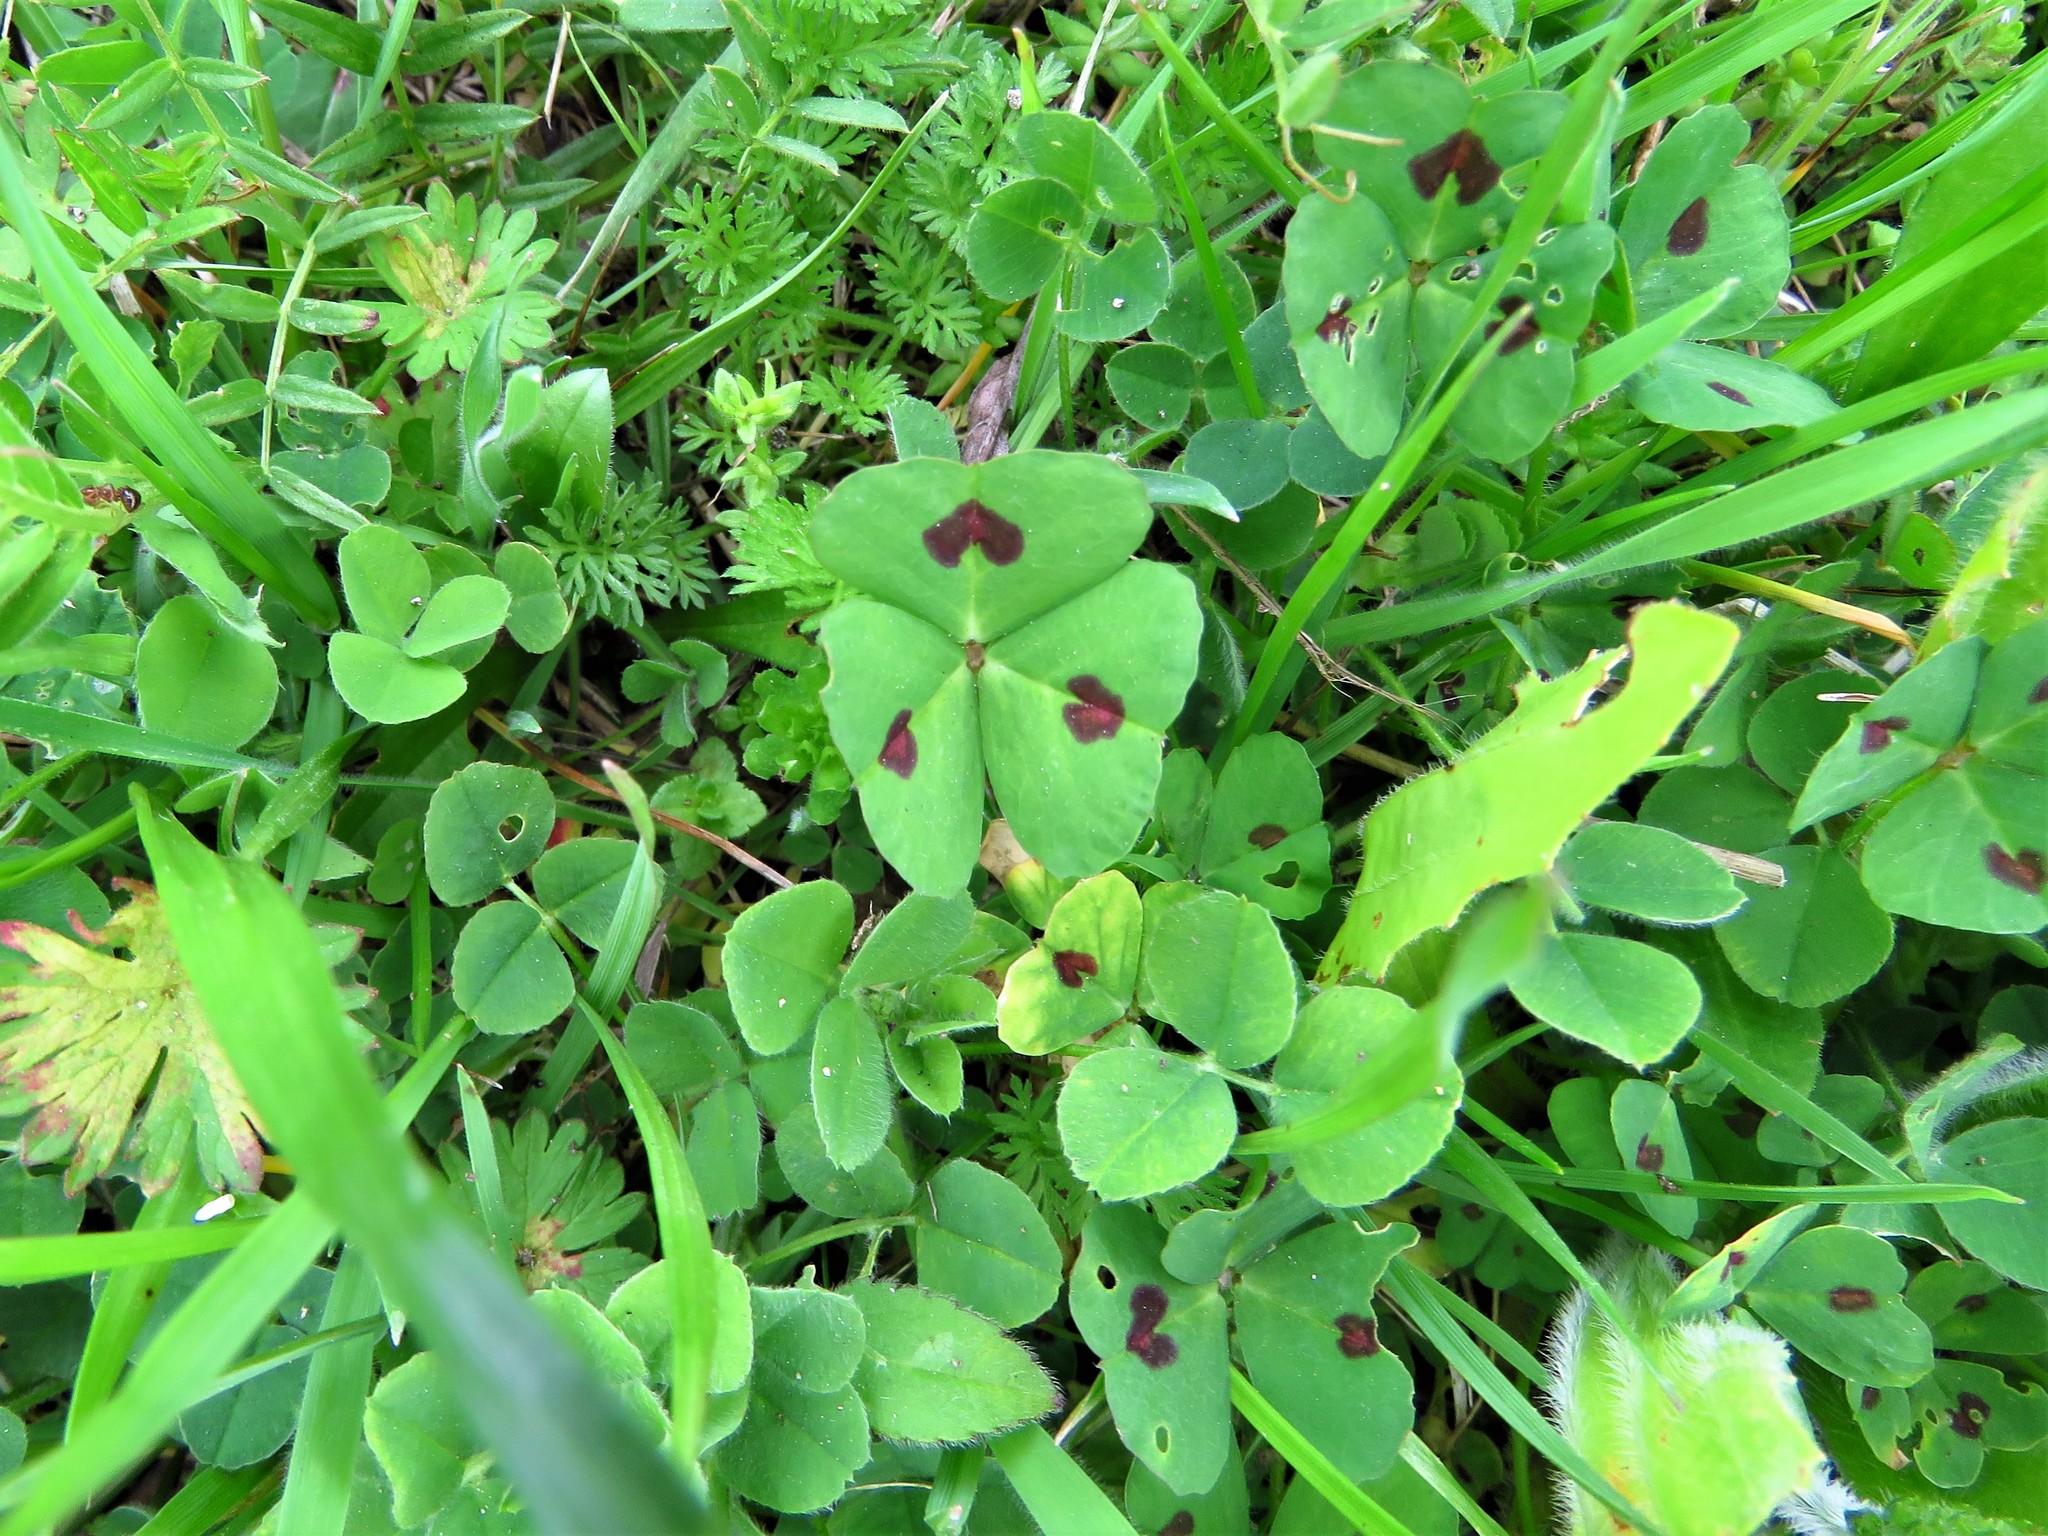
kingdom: Plantae
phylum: Tracheophyta
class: Magnoliopsida
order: Fabales
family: Fabaceae
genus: Medicago
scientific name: Medicago arabica
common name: Spotted medick
